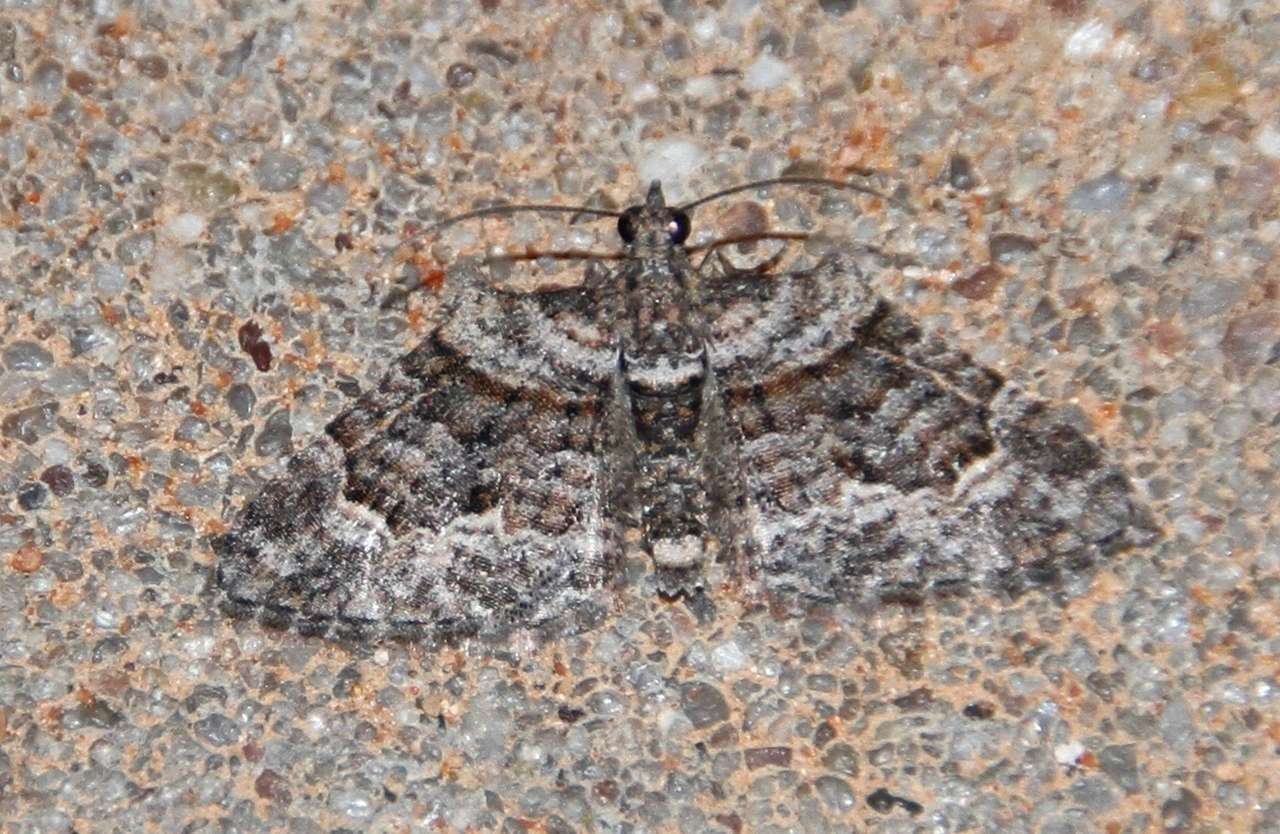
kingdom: Animalia
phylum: Arthropoda
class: Insecta
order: Lepidoptera
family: Geometridae
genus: Phrissogonus
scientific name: Phrissogonus laticostata
